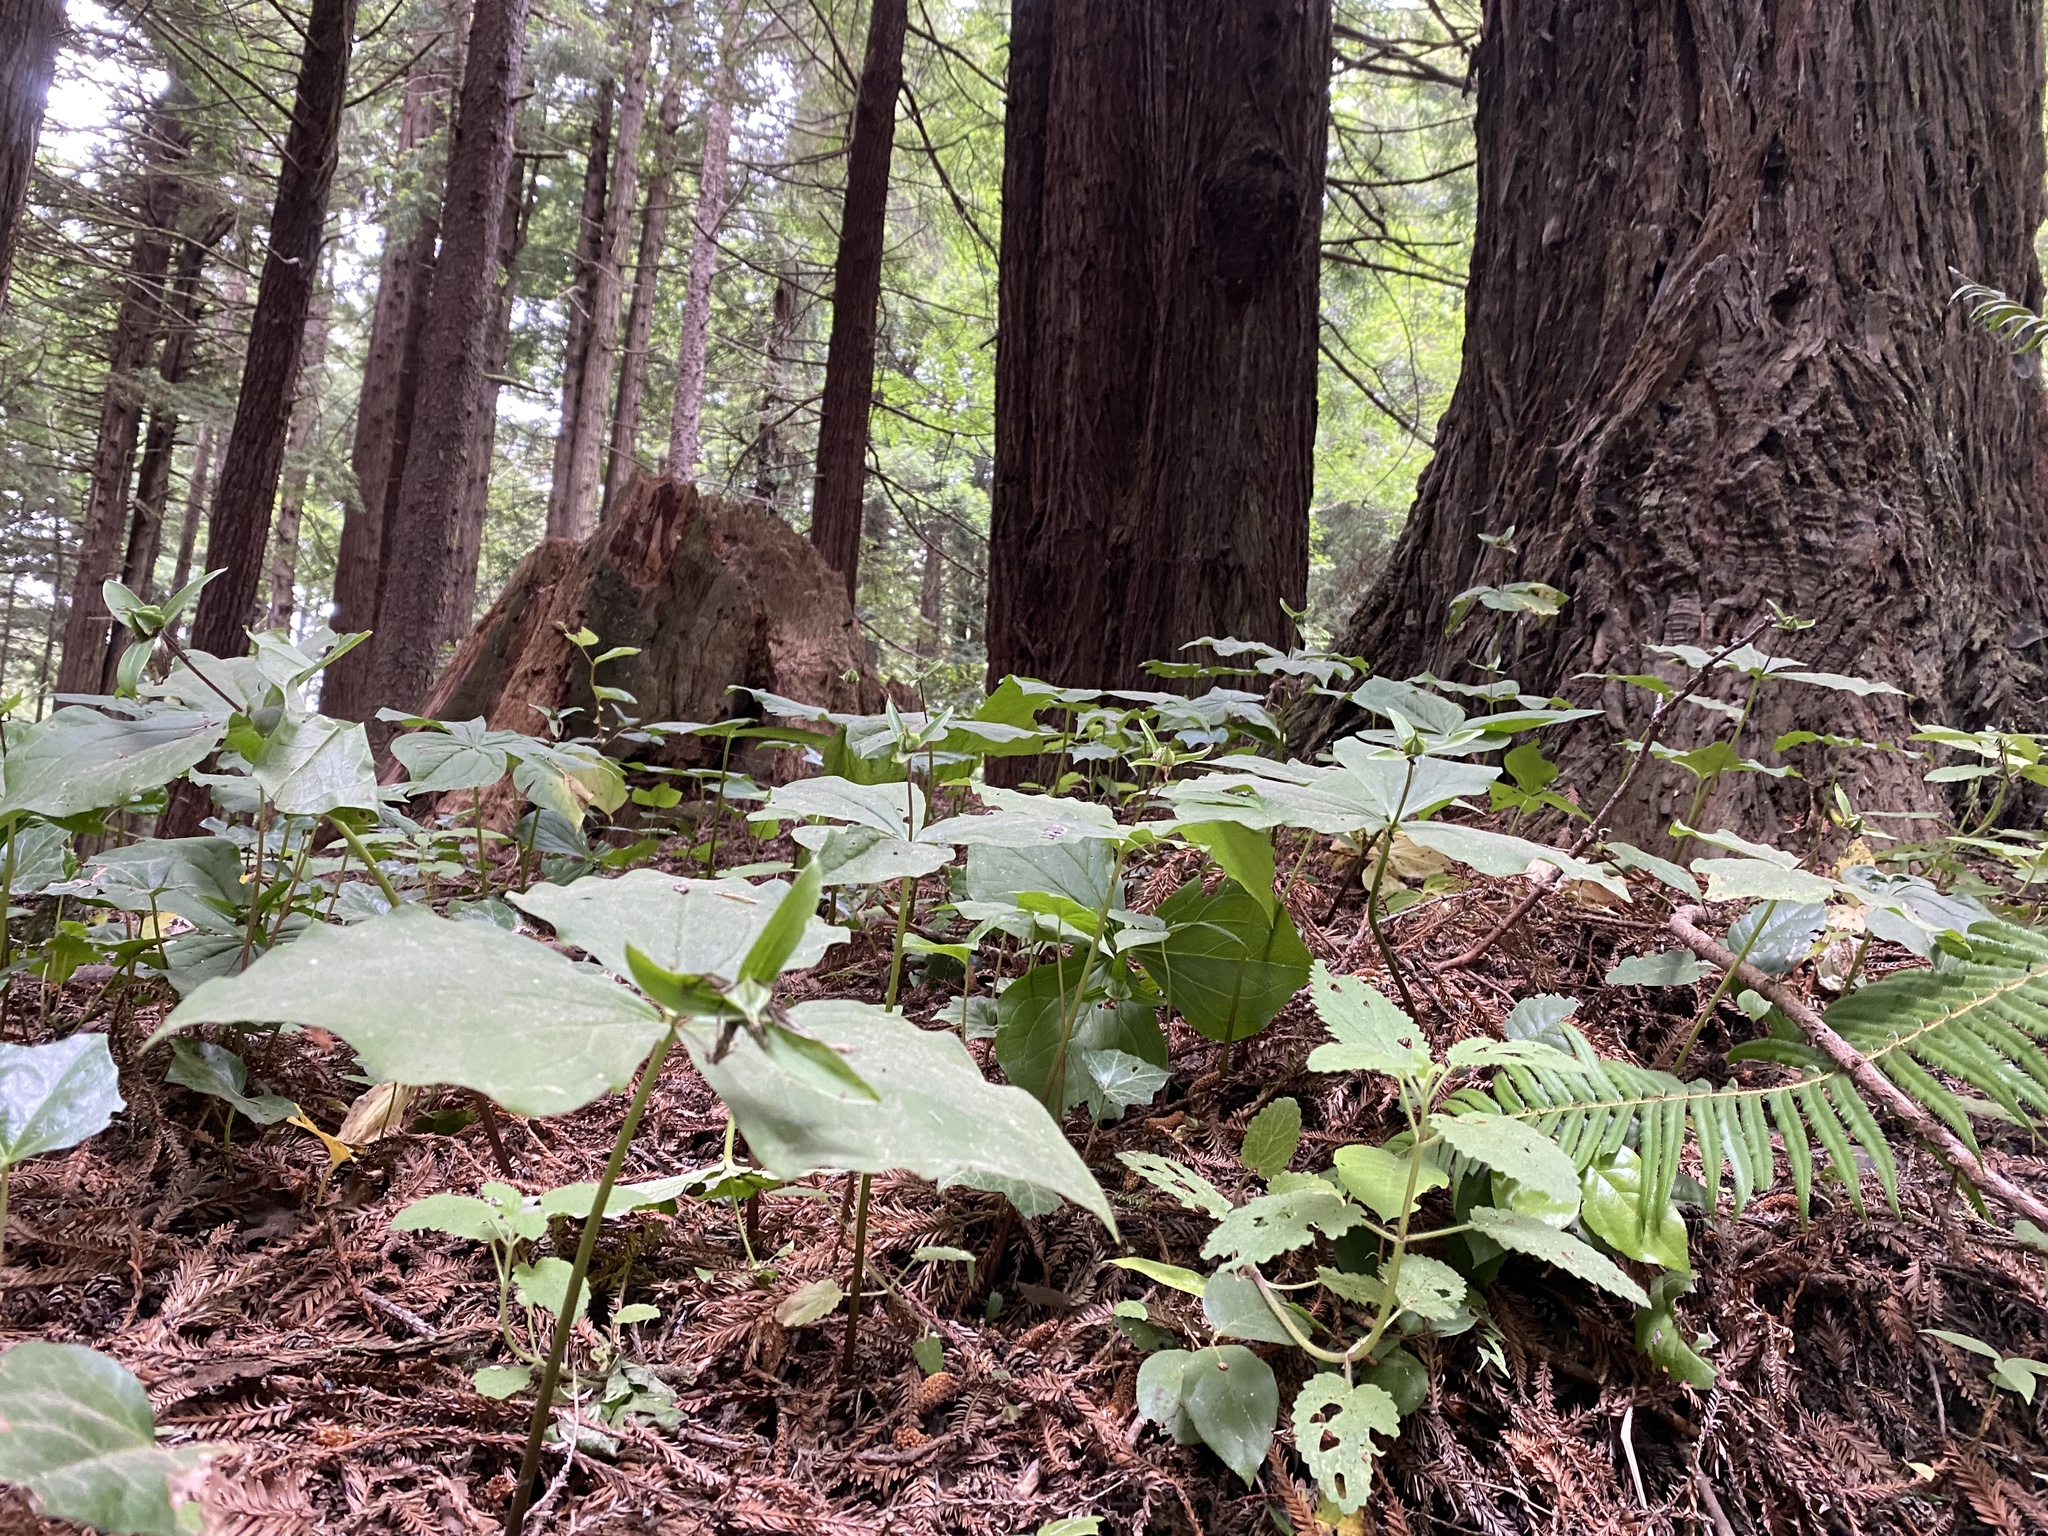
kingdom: Plantae
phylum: Tracheophyta
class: Liliopsida
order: Liliales
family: Melanthiaceae
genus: Trillium
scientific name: Trillium ovatum
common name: Pacific trillium
